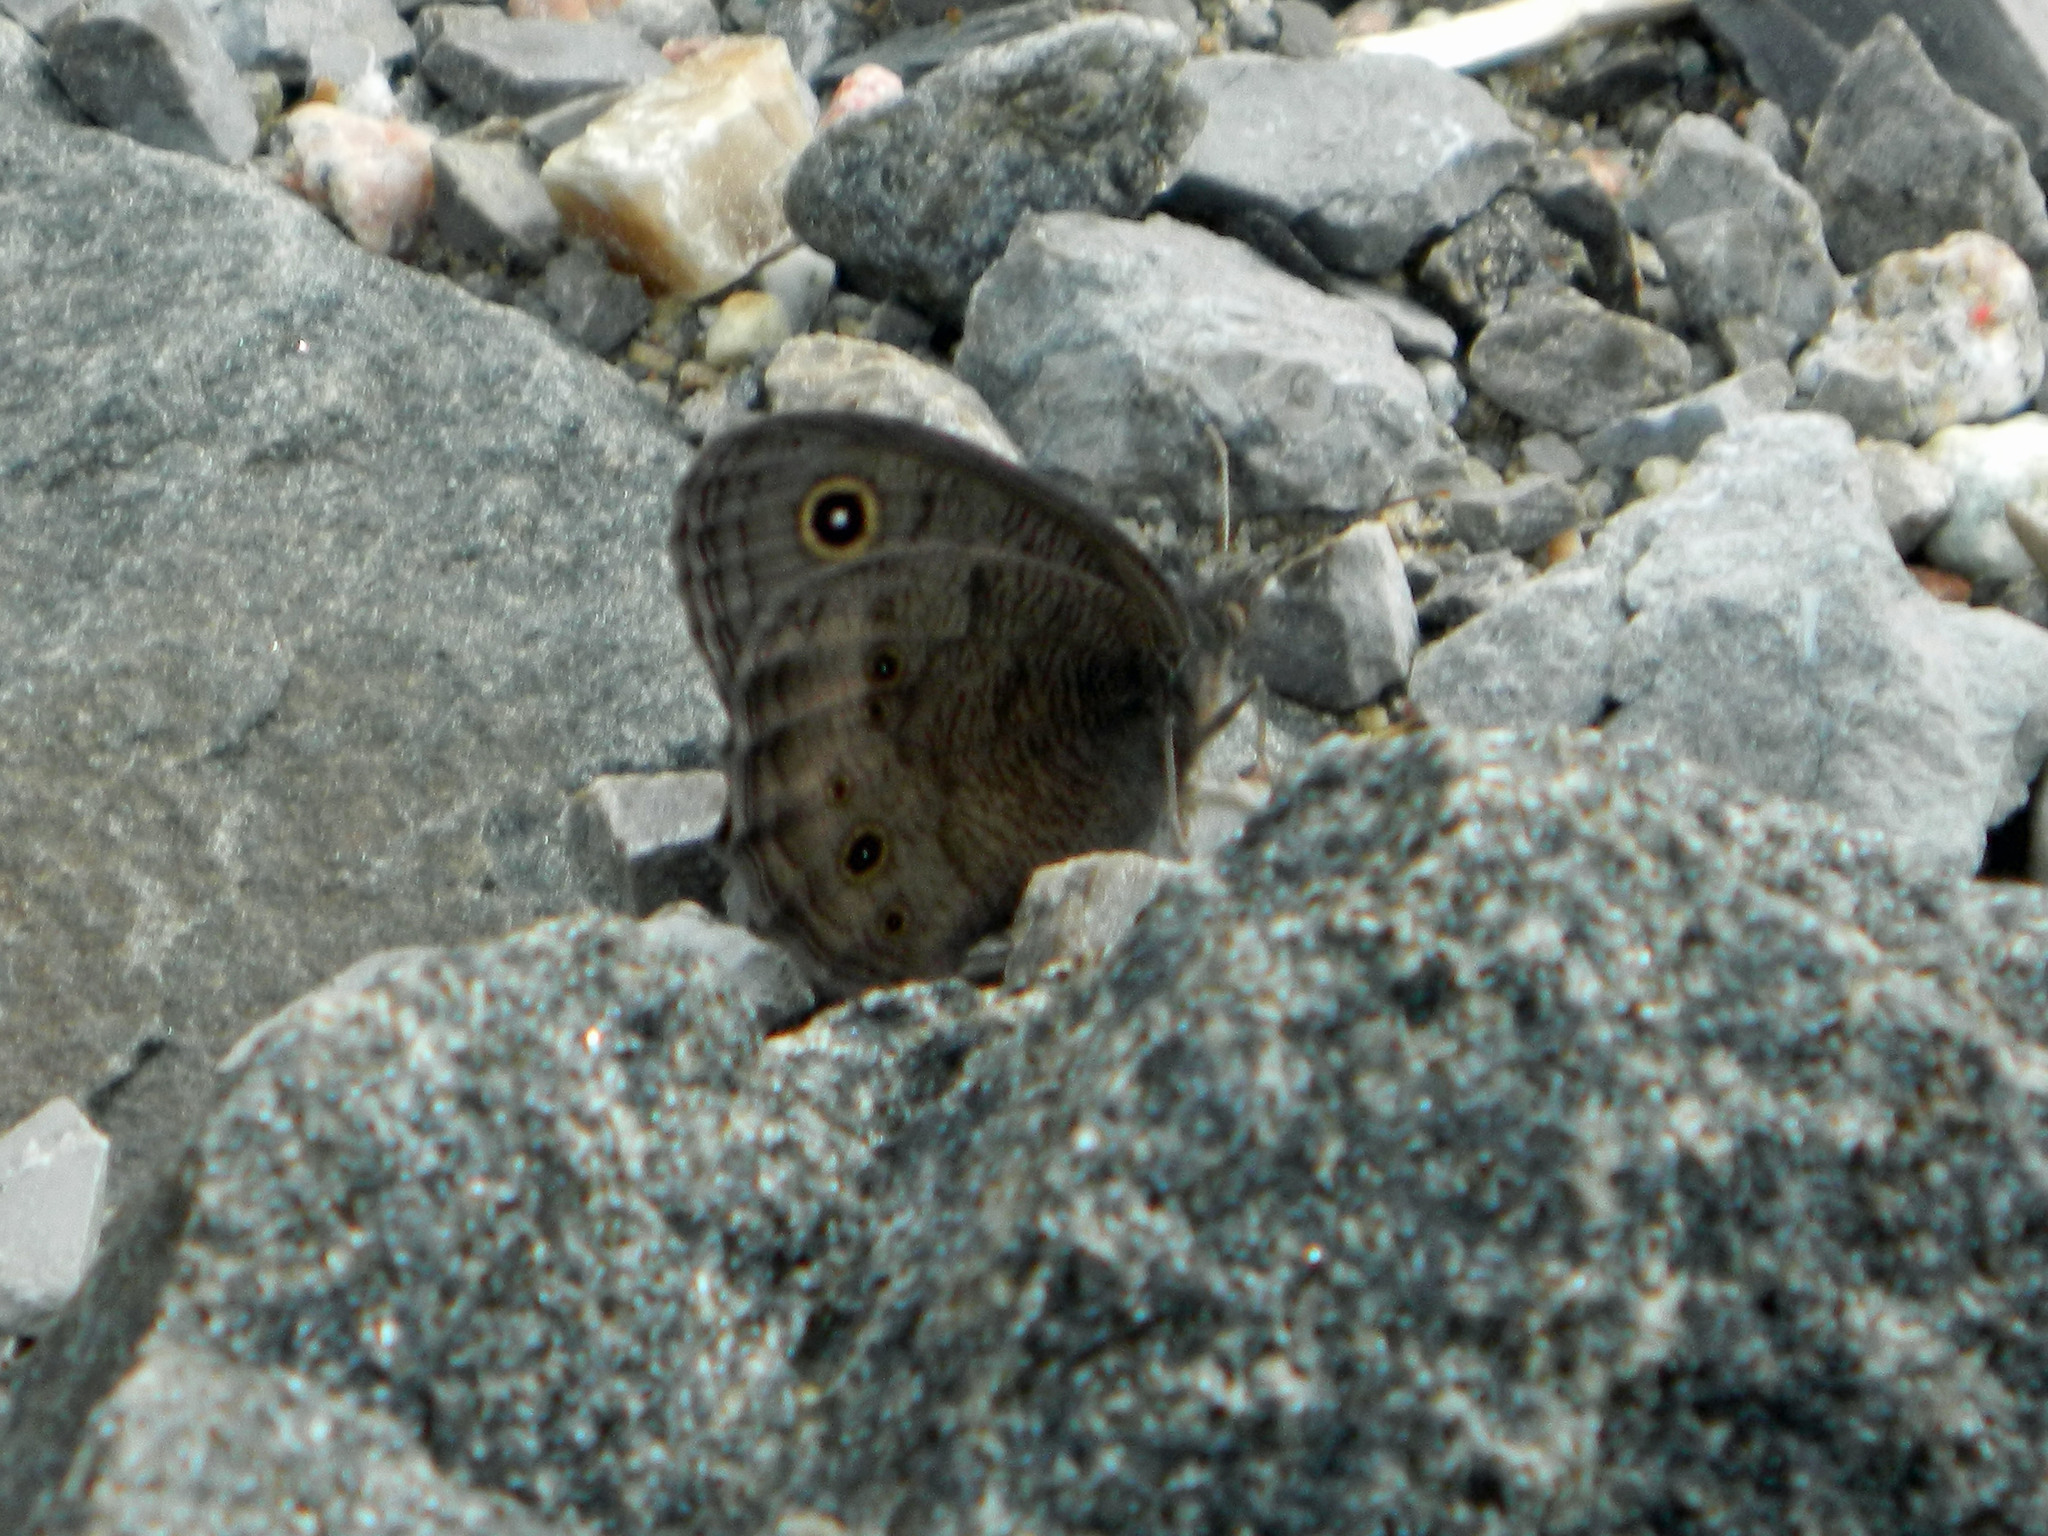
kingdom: Animalia
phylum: Arthropoda
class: Insecta
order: Lepidoptera
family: Nymphalidae
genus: Cercyonis
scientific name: Cercyonis pegala
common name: Common wood-nymph
